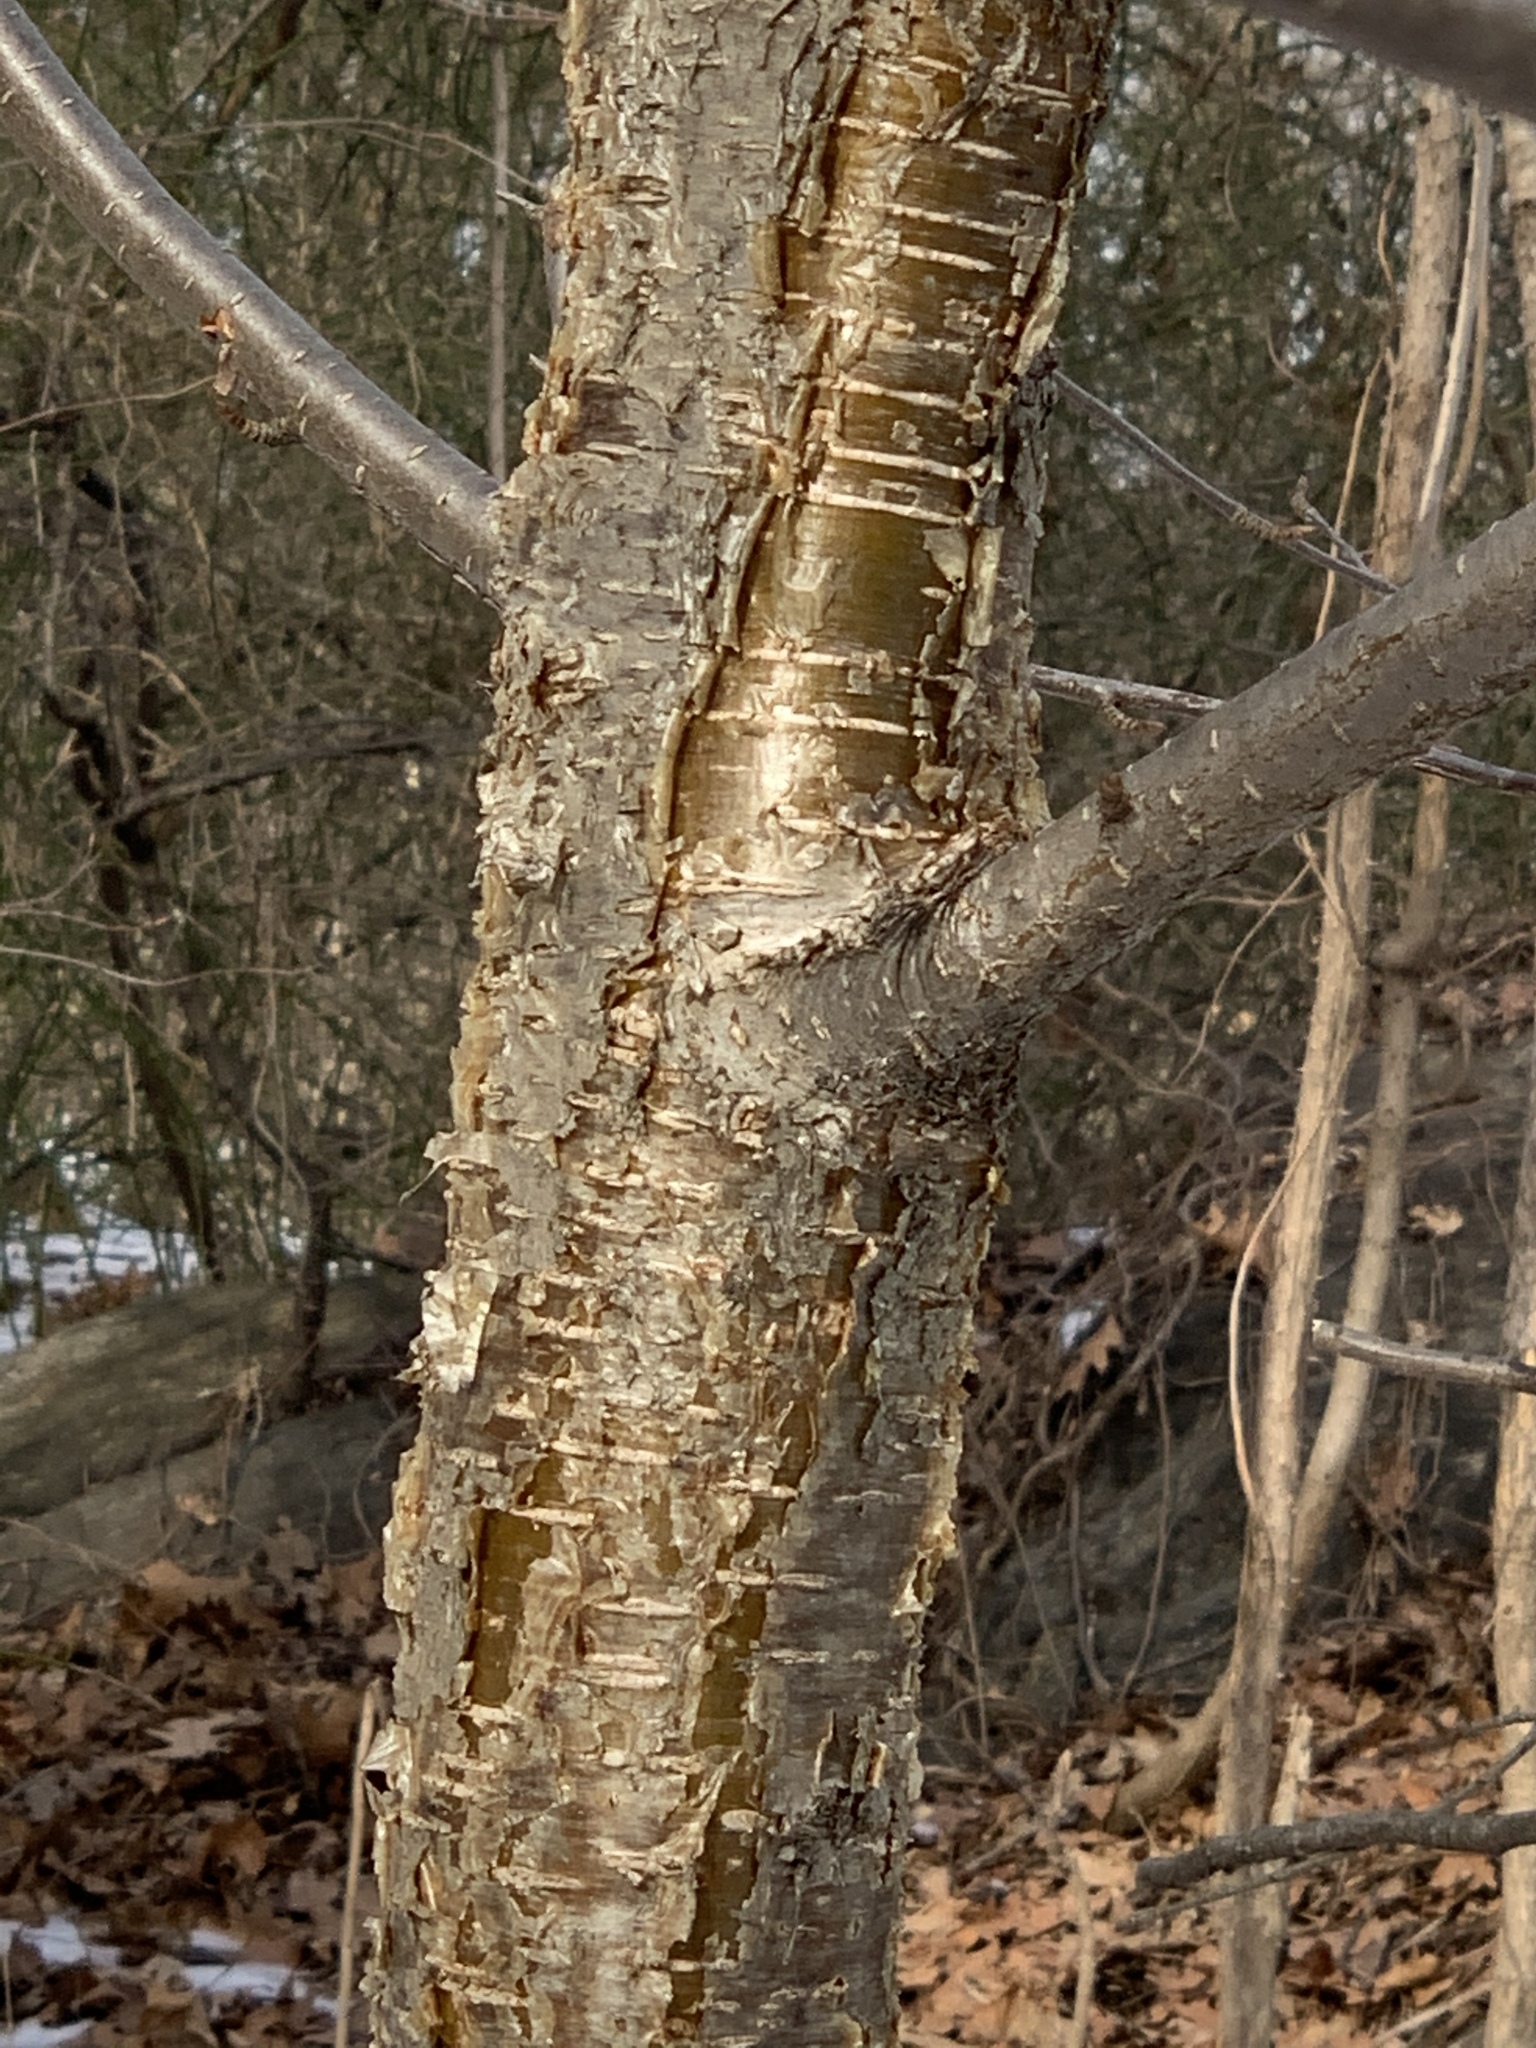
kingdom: Plantae
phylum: Tracheophyta
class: Magnoliopsida
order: Fagales
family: Betulaceae
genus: Betula
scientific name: Betula alleghaniensis
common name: Yellow birch
